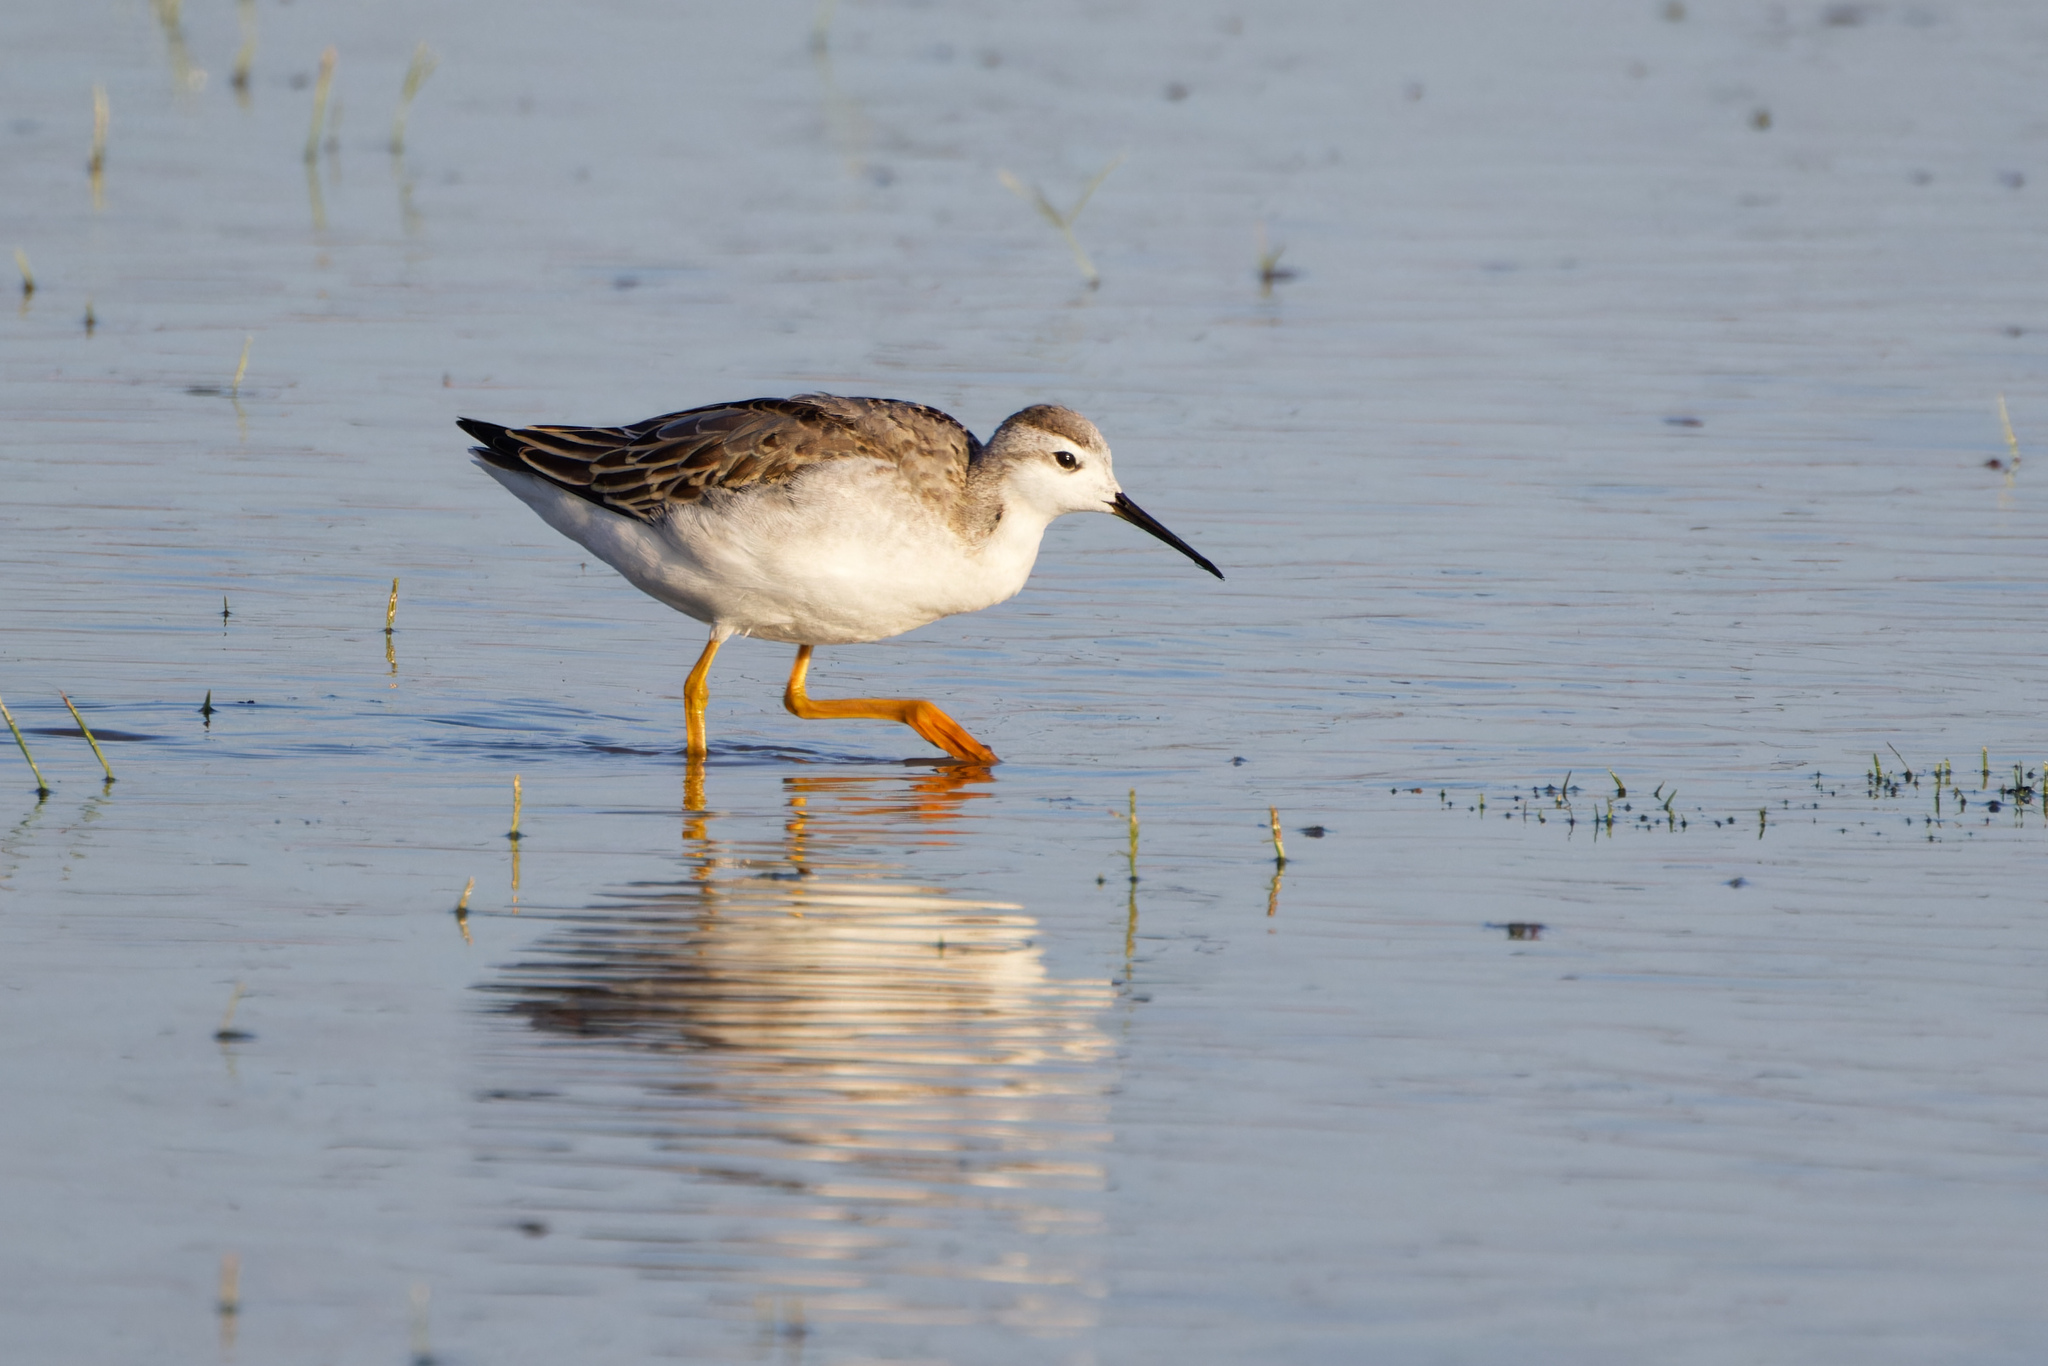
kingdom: Animalia
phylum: Chordata
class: Aves
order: Charadriiformes
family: Scolopacidae
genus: Phalaropus
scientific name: Phalaropus tricolor
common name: Wilson's phalarope
